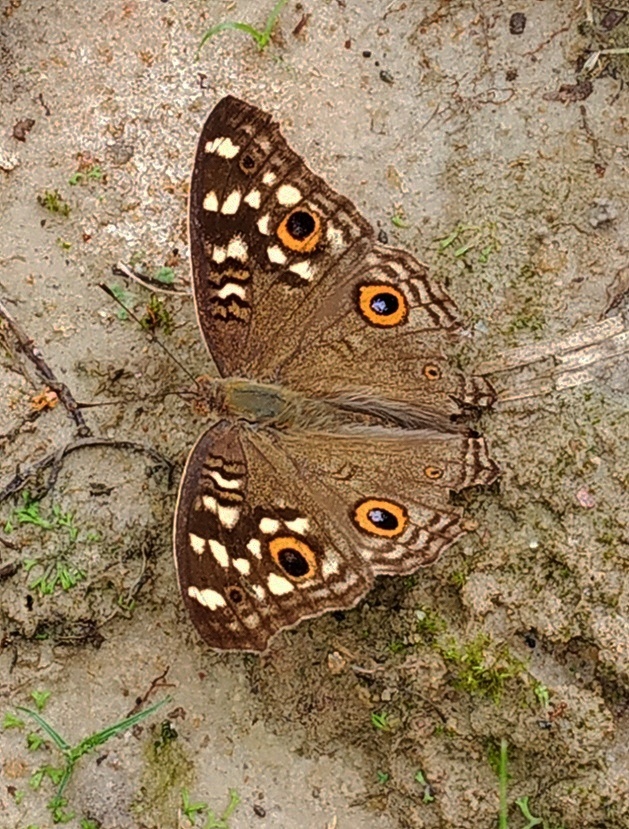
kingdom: Animalia
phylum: Arthropoda
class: Insecta
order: Lepidoptera
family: Nymphalidae
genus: Junonia
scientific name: Junonia lemonias
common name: Lemon pansy
